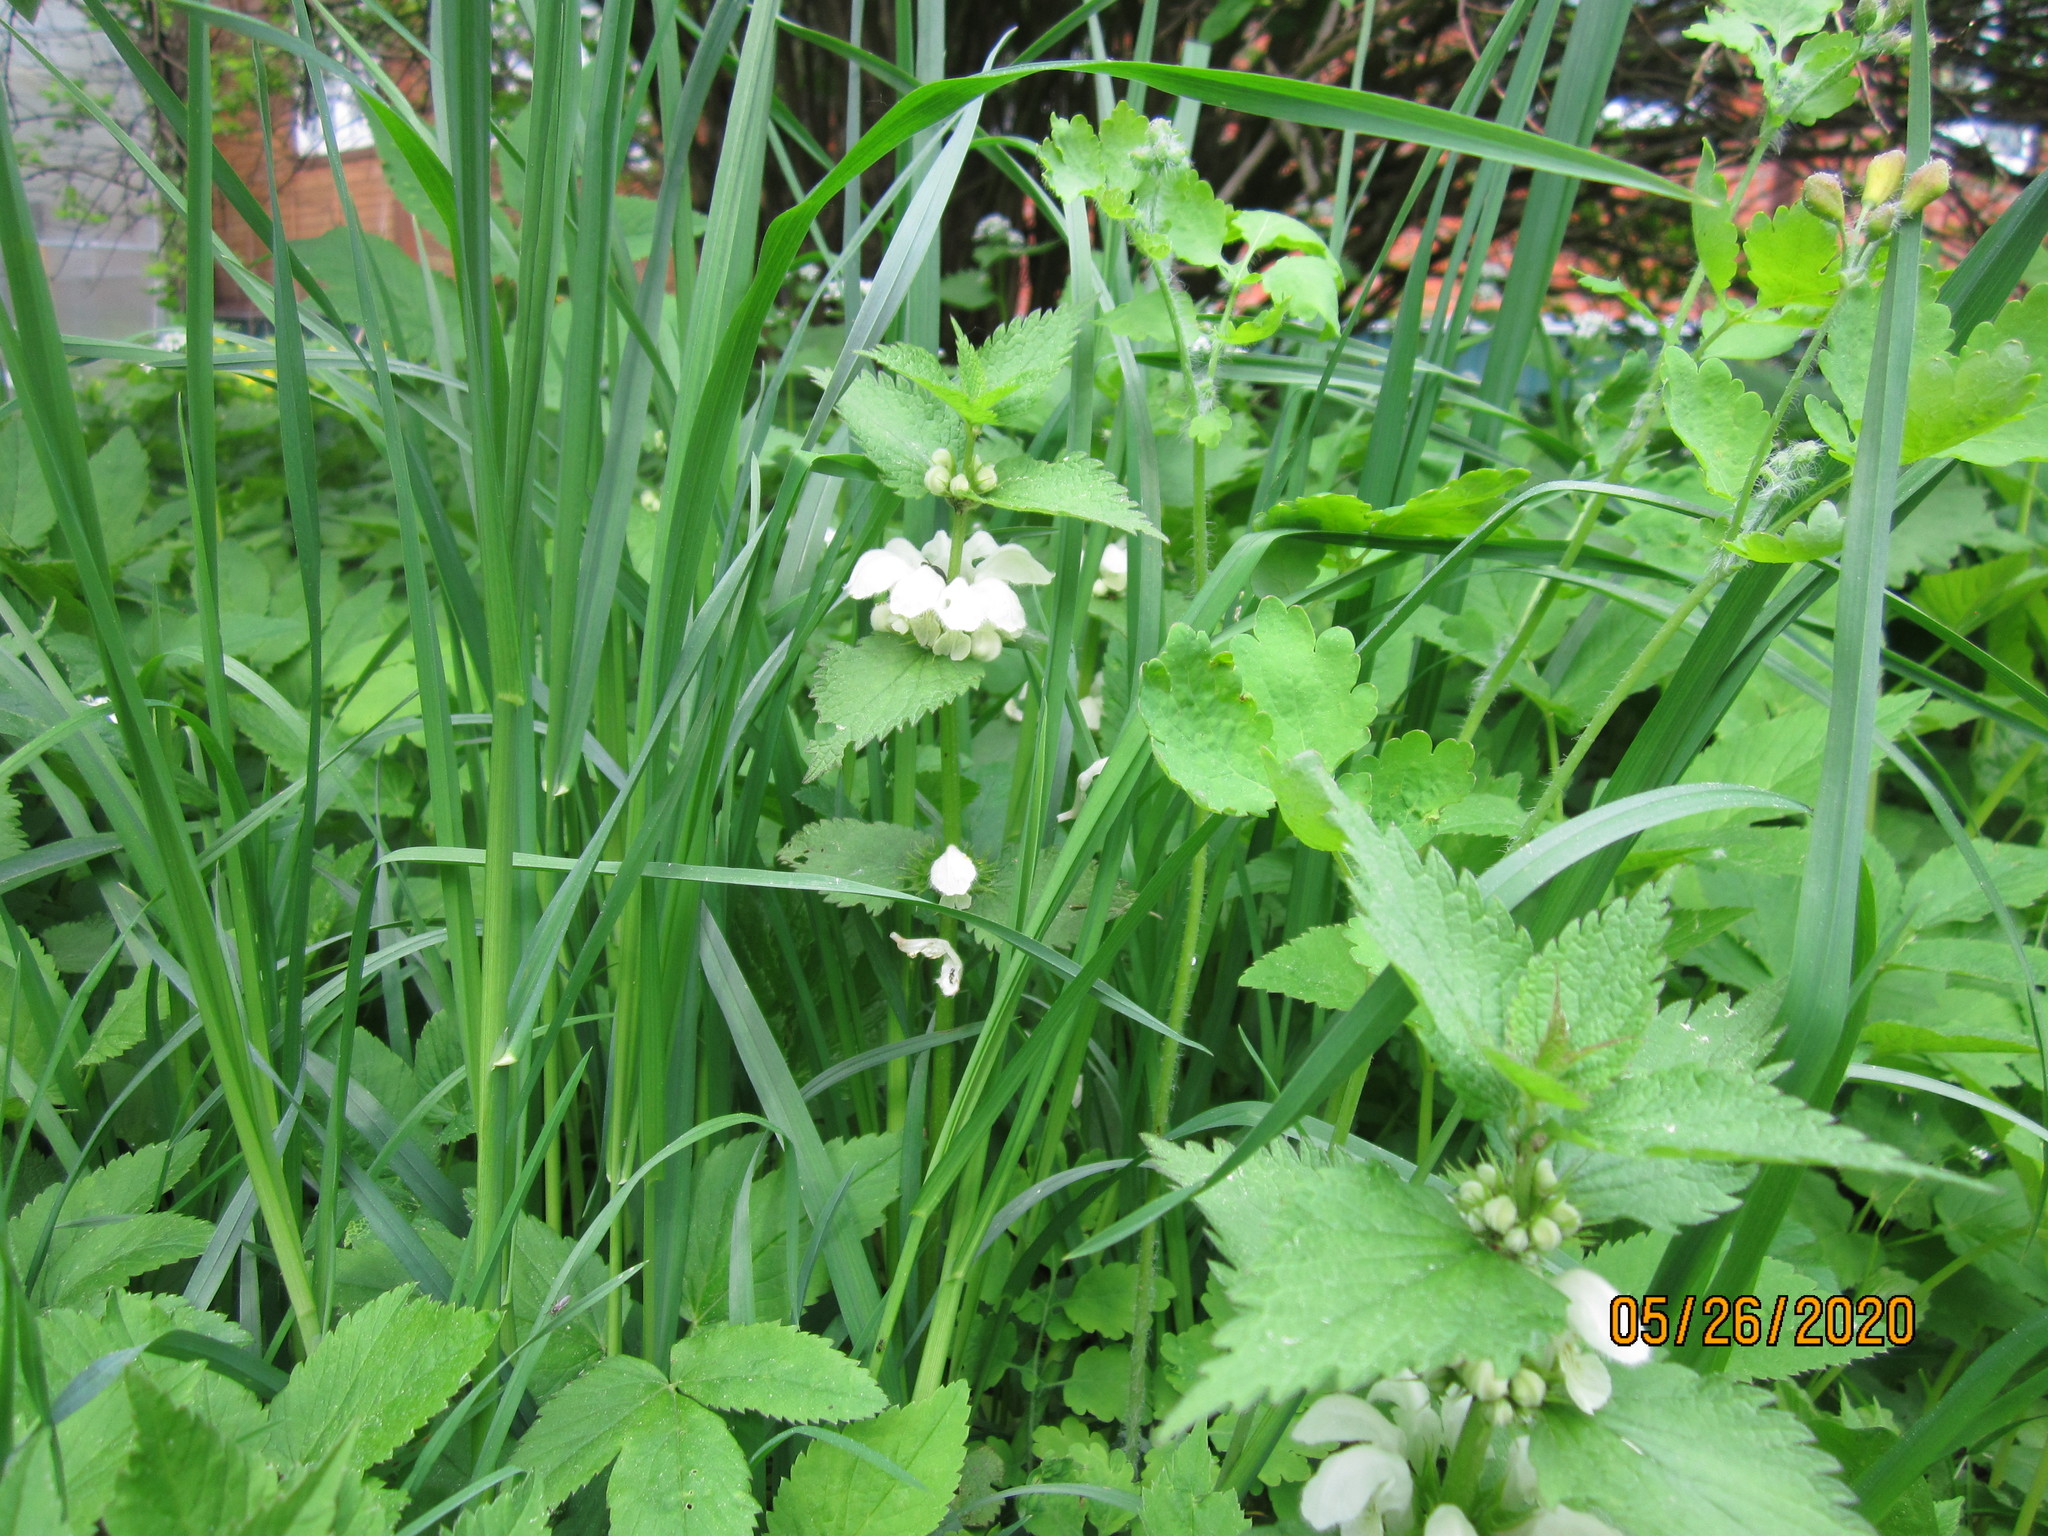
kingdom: Plantae
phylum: Tracheophyta
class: Magnoliopsida
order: Lamiales
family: Lamiaceae
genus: Lamium
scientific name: Lamium album
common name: White dead-nettle
